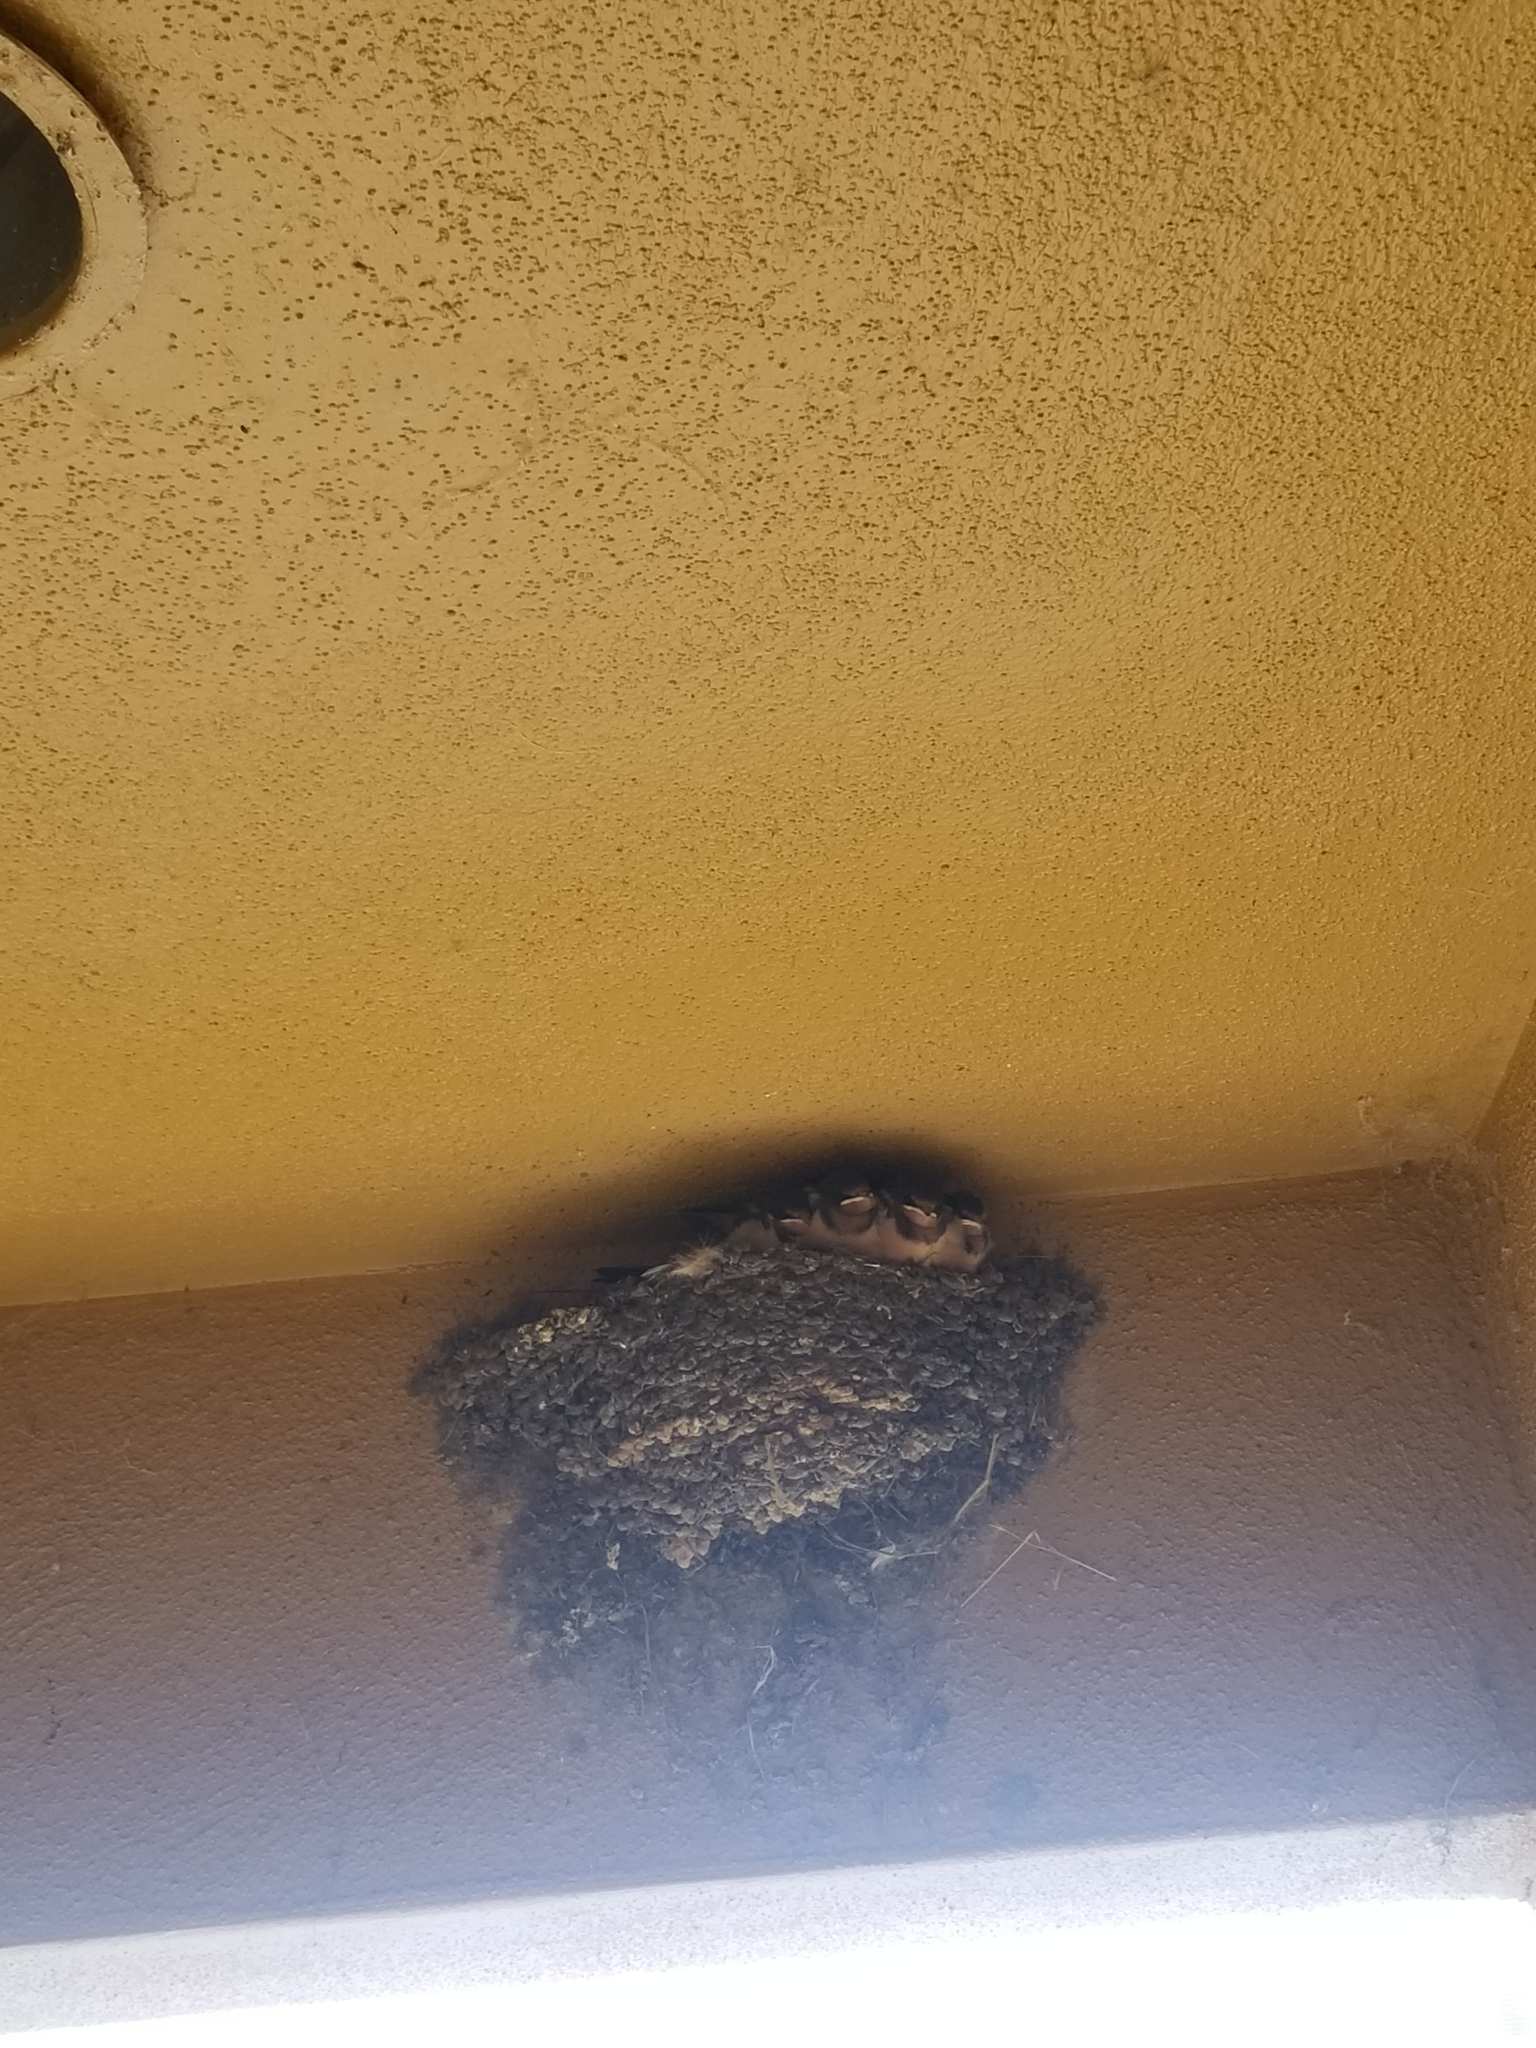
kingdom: Animalia
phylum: Chordata
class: Aves
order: Passeriformes
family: Hirundinidae
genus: Hirundo
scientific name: Hirundo rustica
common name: Barn swallow
